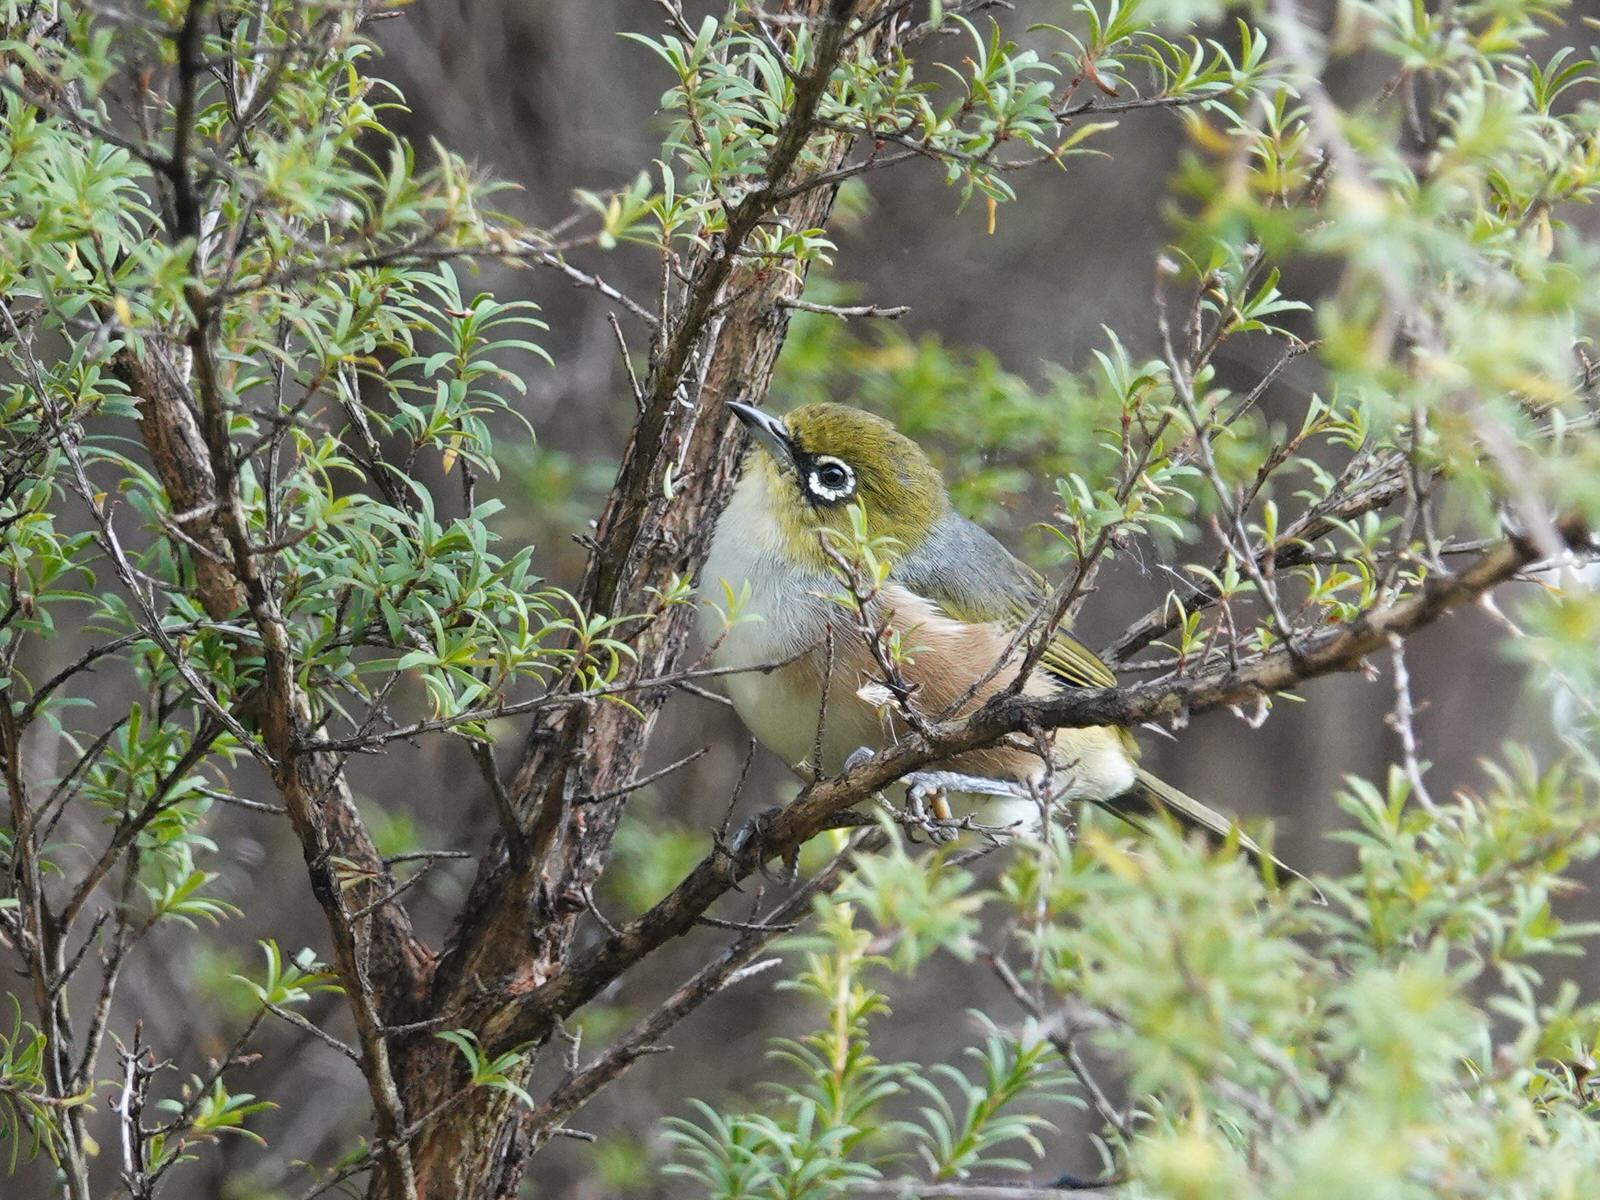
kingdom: Animalia
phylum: Chordata
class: Aves
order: Passeriformes
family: Zosteropidae
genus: Zosterops
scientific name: Zosterops lateralis
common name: Silvereye
